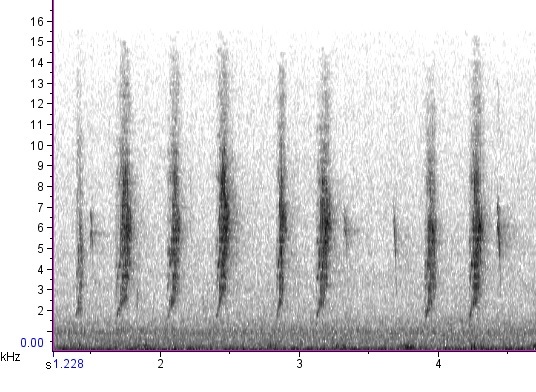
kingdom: Animalia
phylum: Chordata
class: Aves
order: Passeriformes
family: Passerellidae
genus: Melospiza
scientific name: Melospiza georgiana
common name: Swamp sparrow
